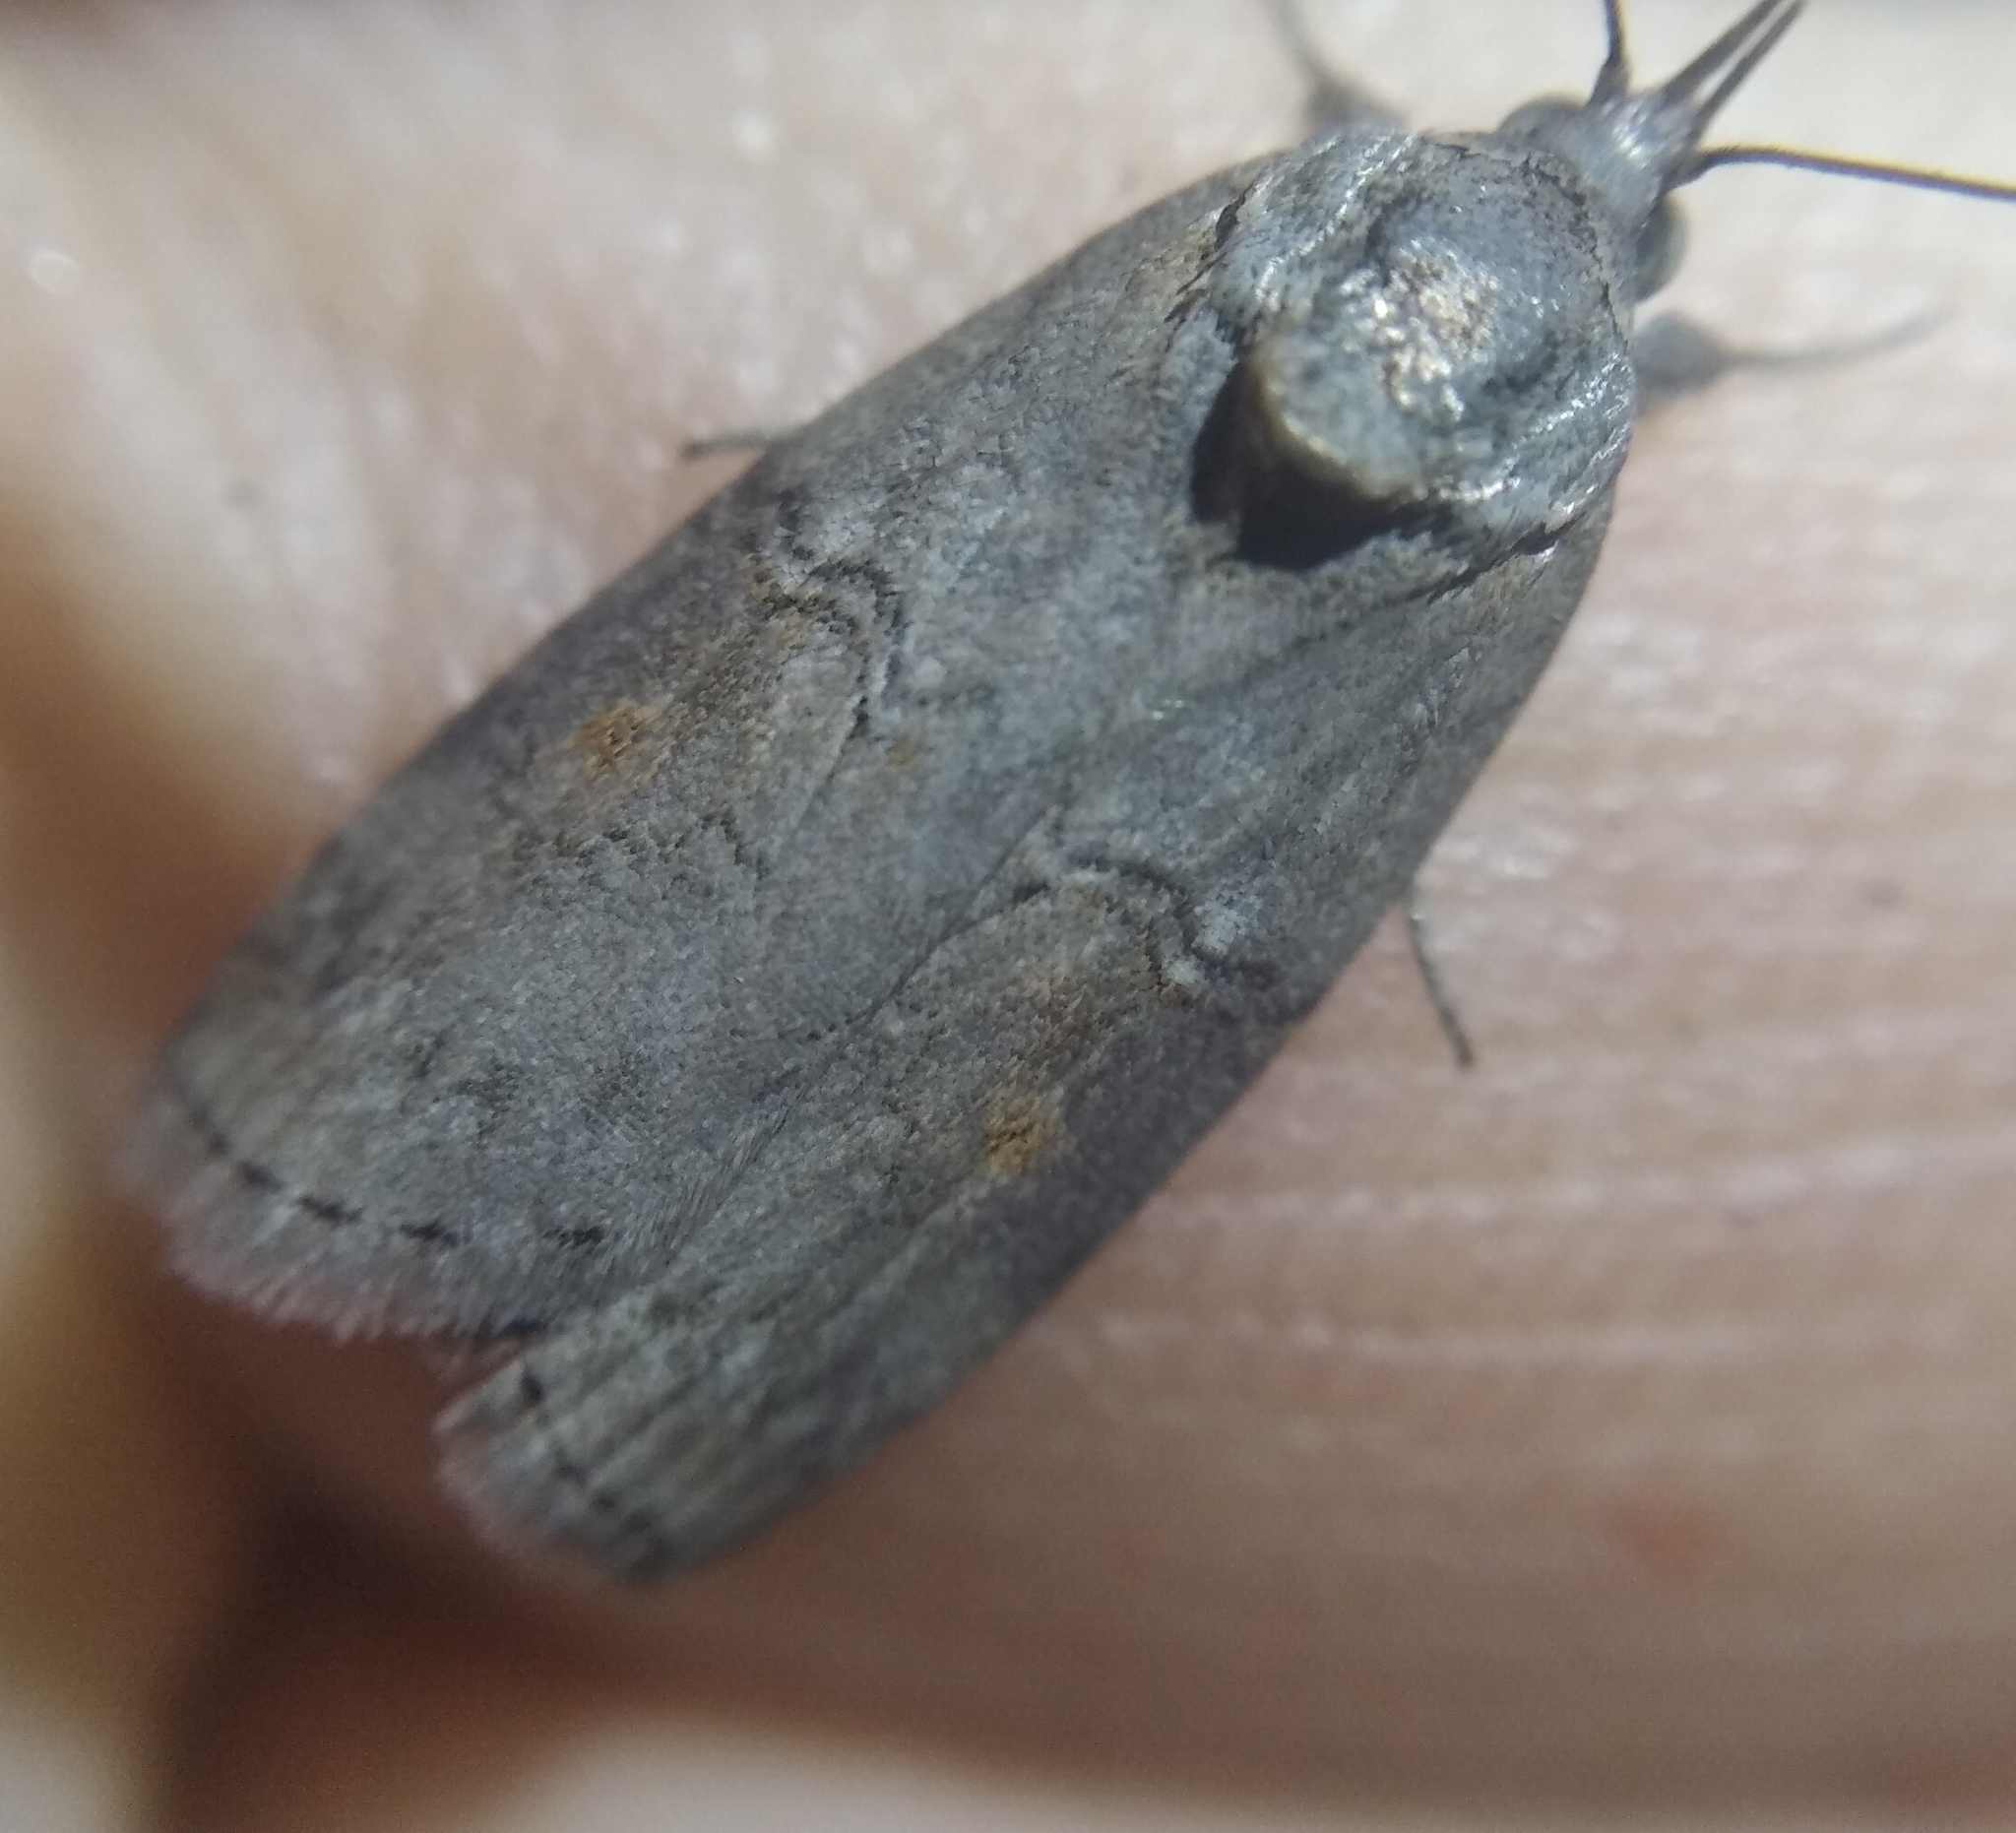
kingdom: Animalia
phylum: Arthropoda
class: Insecta
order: Lepidoptera
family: Nolidae
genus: Nycteola
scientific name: Nycteola asiatica
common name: Eastern nycteoline
